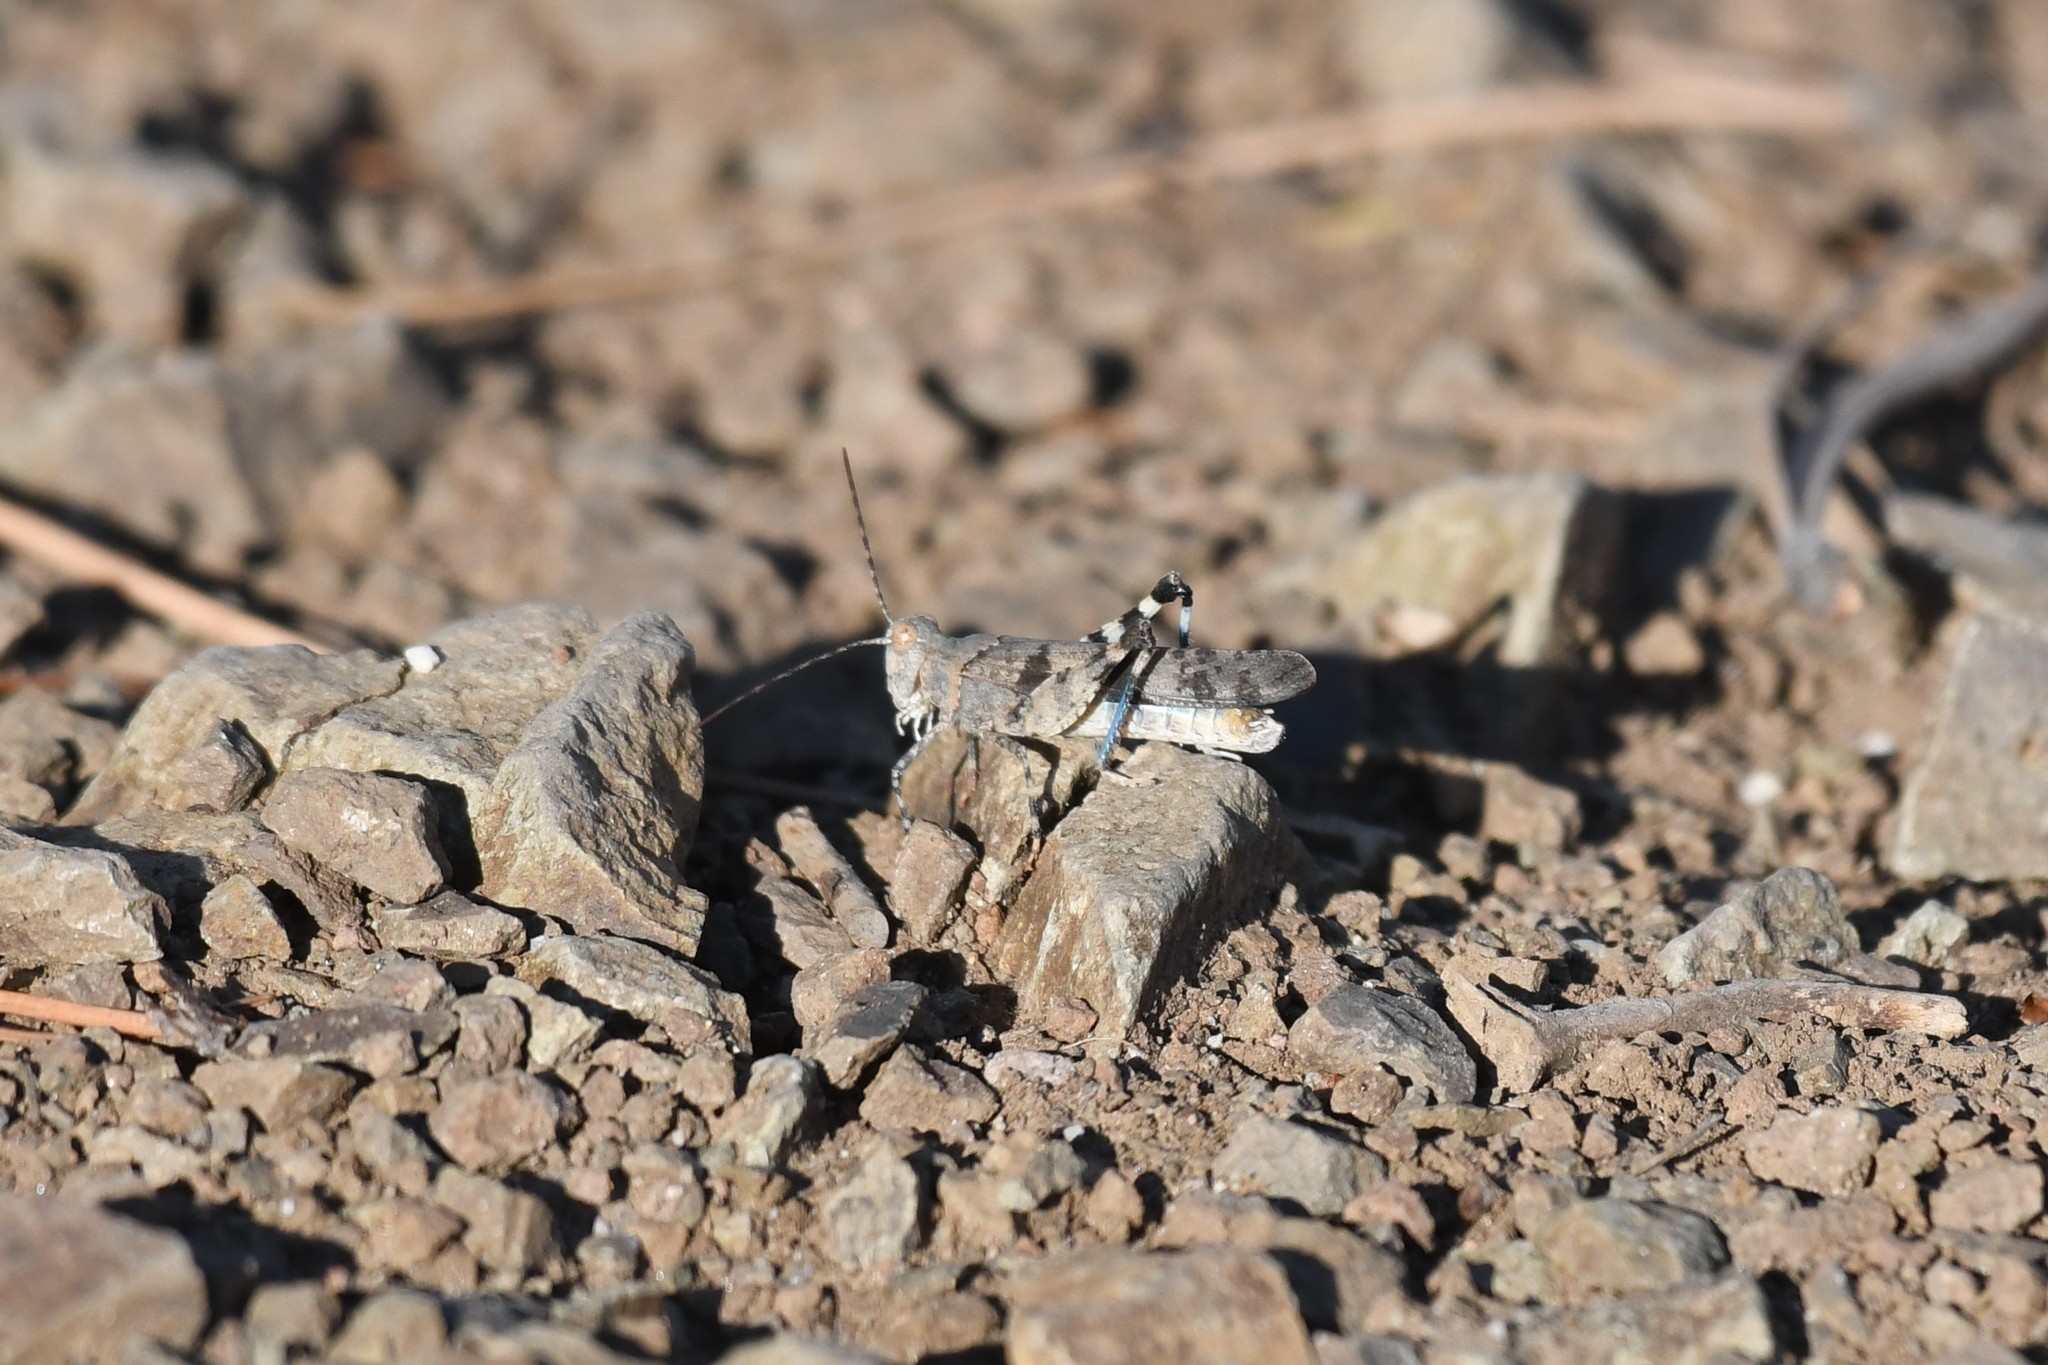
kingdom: Animalia
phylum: Arthropoda
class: Insecta
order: Orthoptera
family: Acrididae
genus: Trimerotropis
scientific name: Trimerotropis fontana
